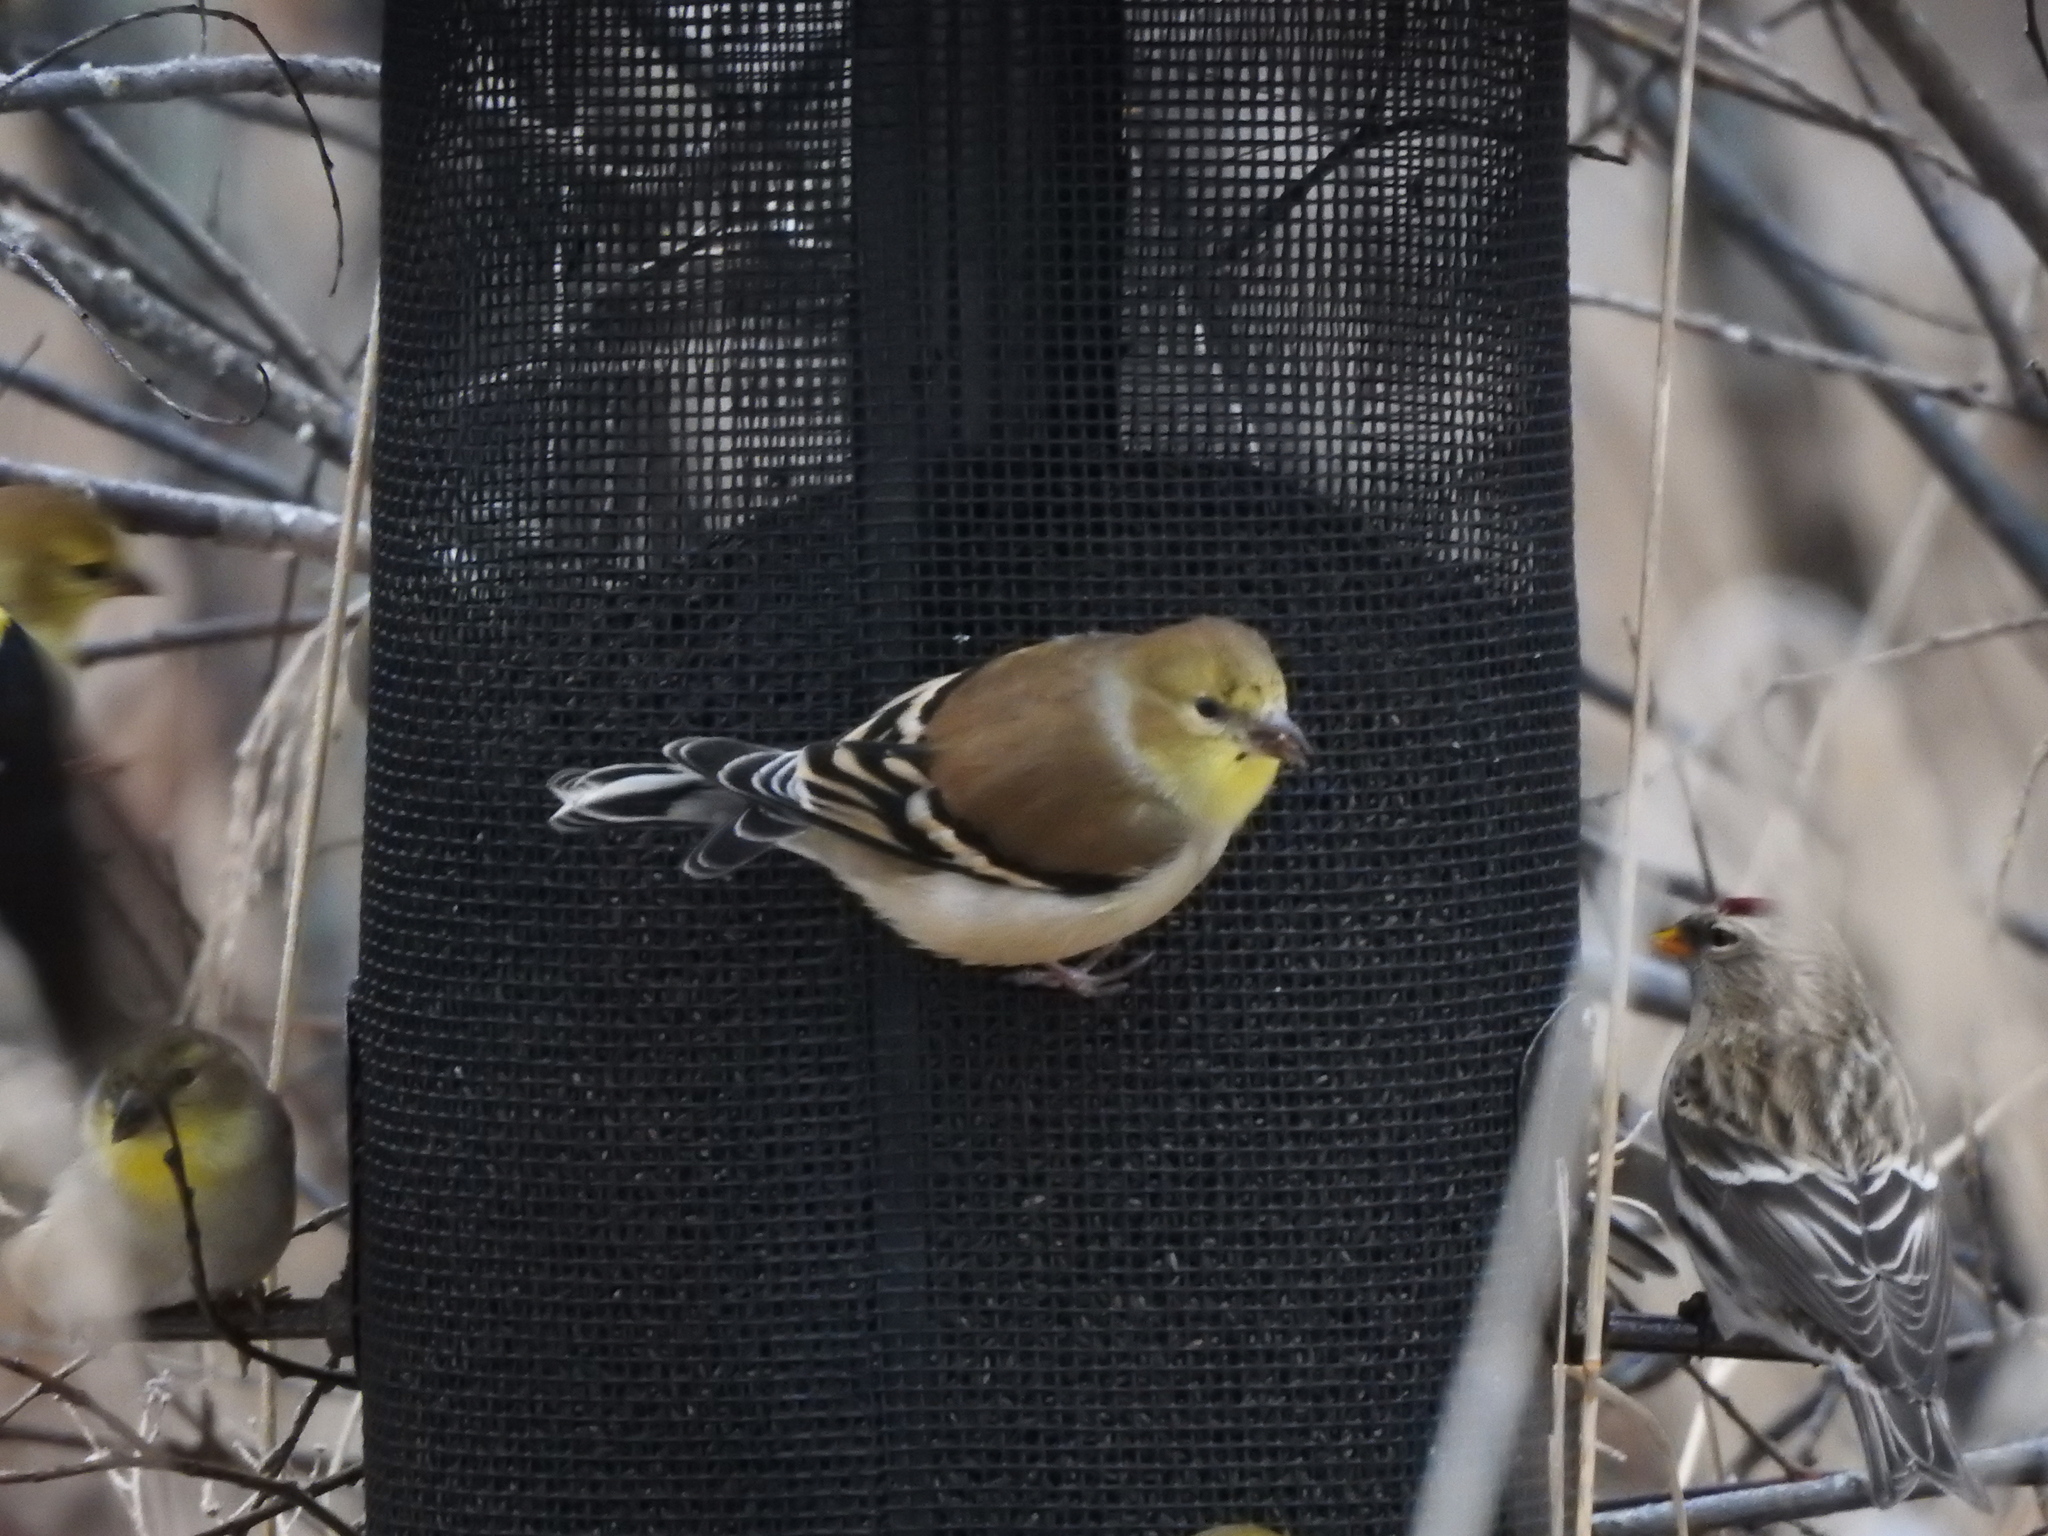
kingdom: Animalia
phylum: Chordata
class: Aves
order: Passeriformes
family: Fringillidae
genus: Spinus
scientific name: Spinus tristis
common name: American goldfinch
